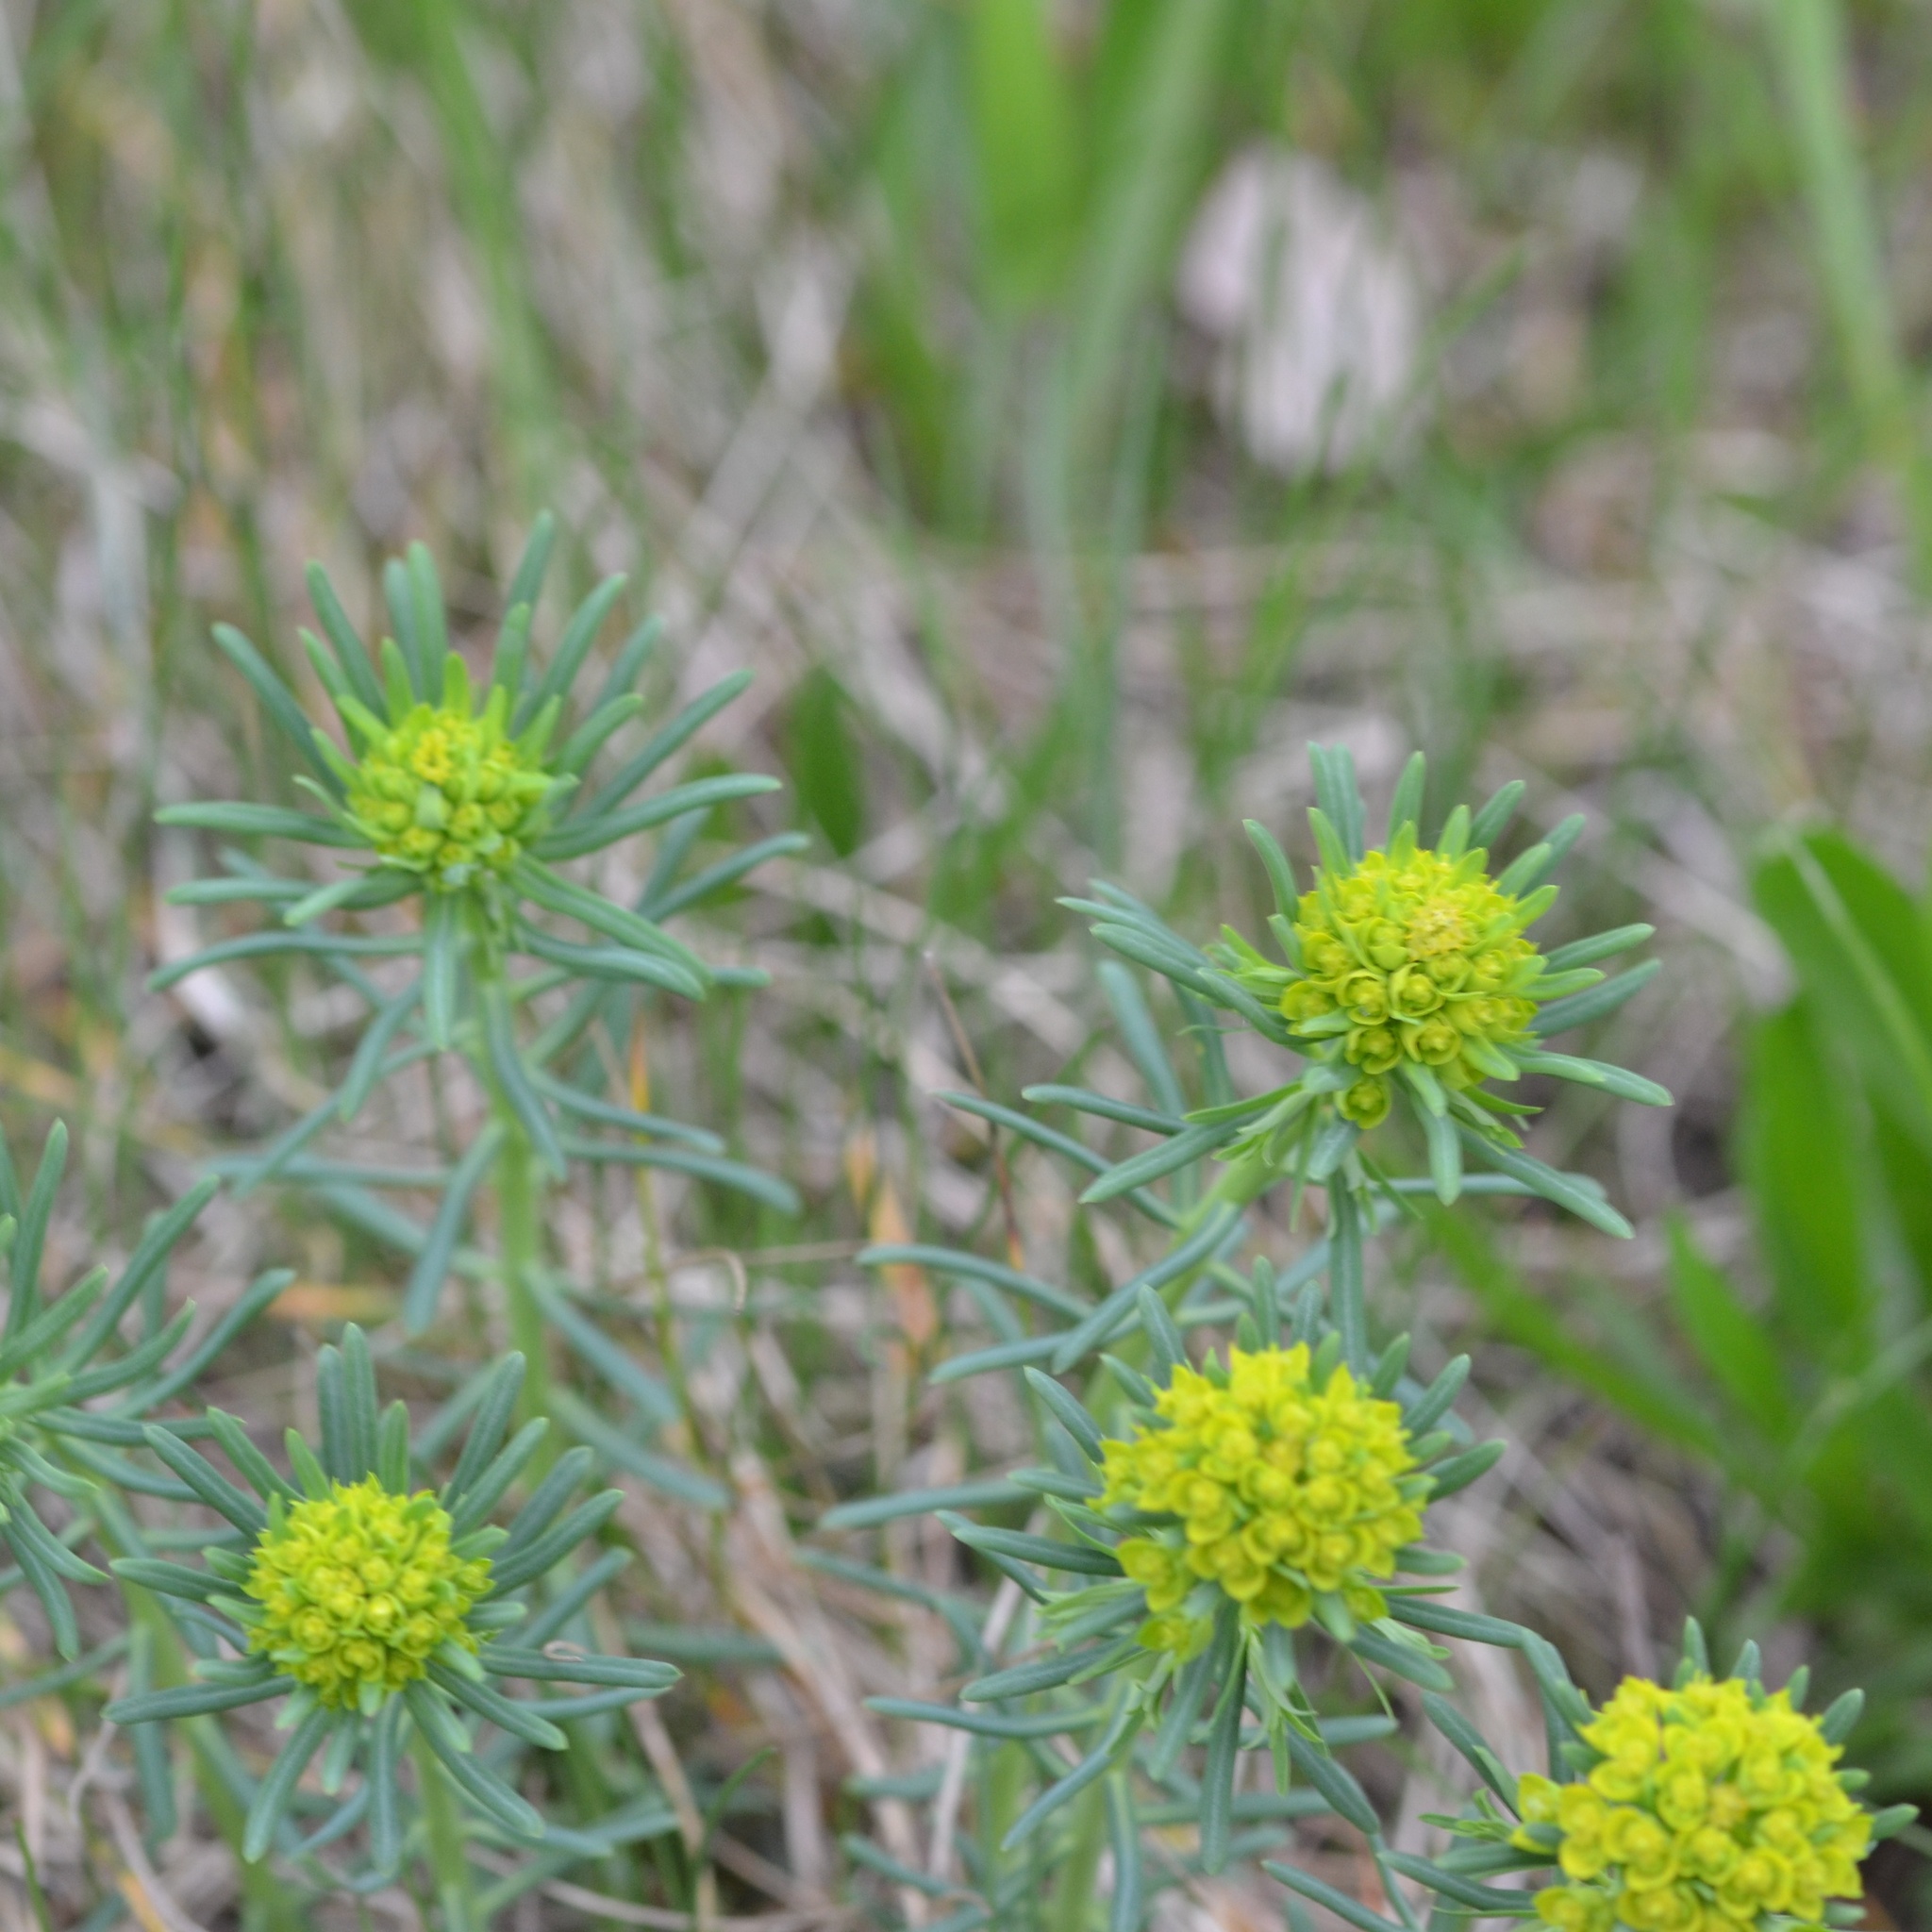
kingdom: Plantae
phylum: Tracheophyta
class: Magnoliopsida
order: Malpighiales
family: Euphorbiaceae
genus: Euphorbia
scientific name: Euphorbia cyparissias
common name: Cypress spurge
